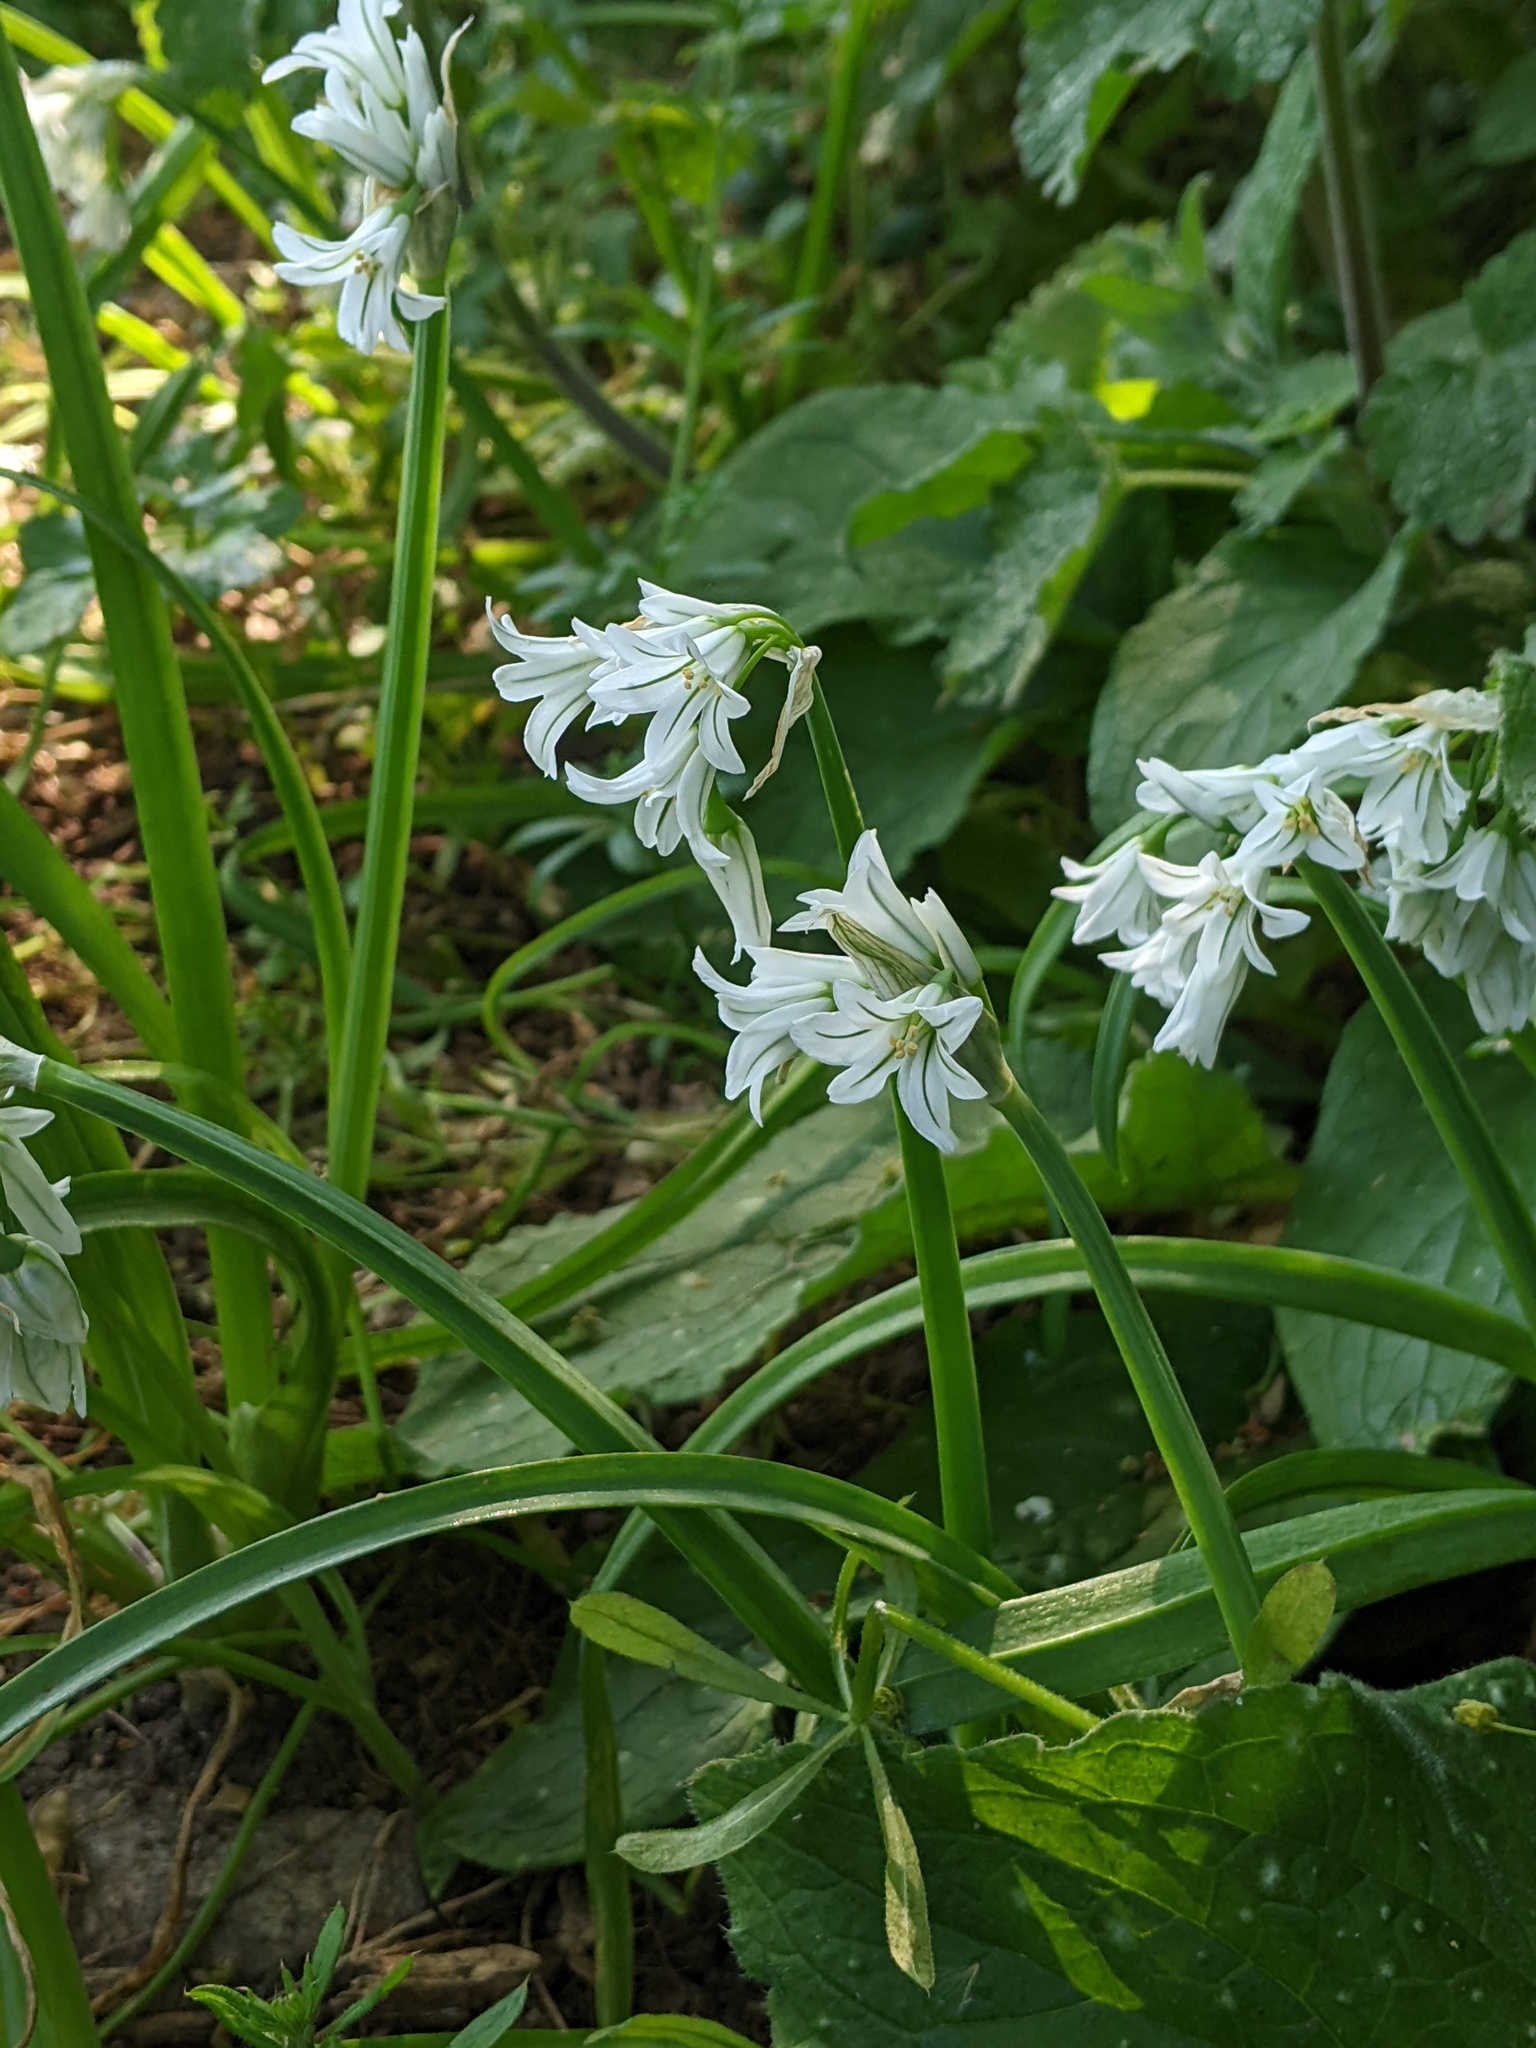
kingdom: Plantae
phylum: Tracheophyta
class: Liliopsida
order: Asparagales
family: Amaryllidaceae
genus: Allium
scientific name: Allium triquetrum
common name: Three-cornered garlic
